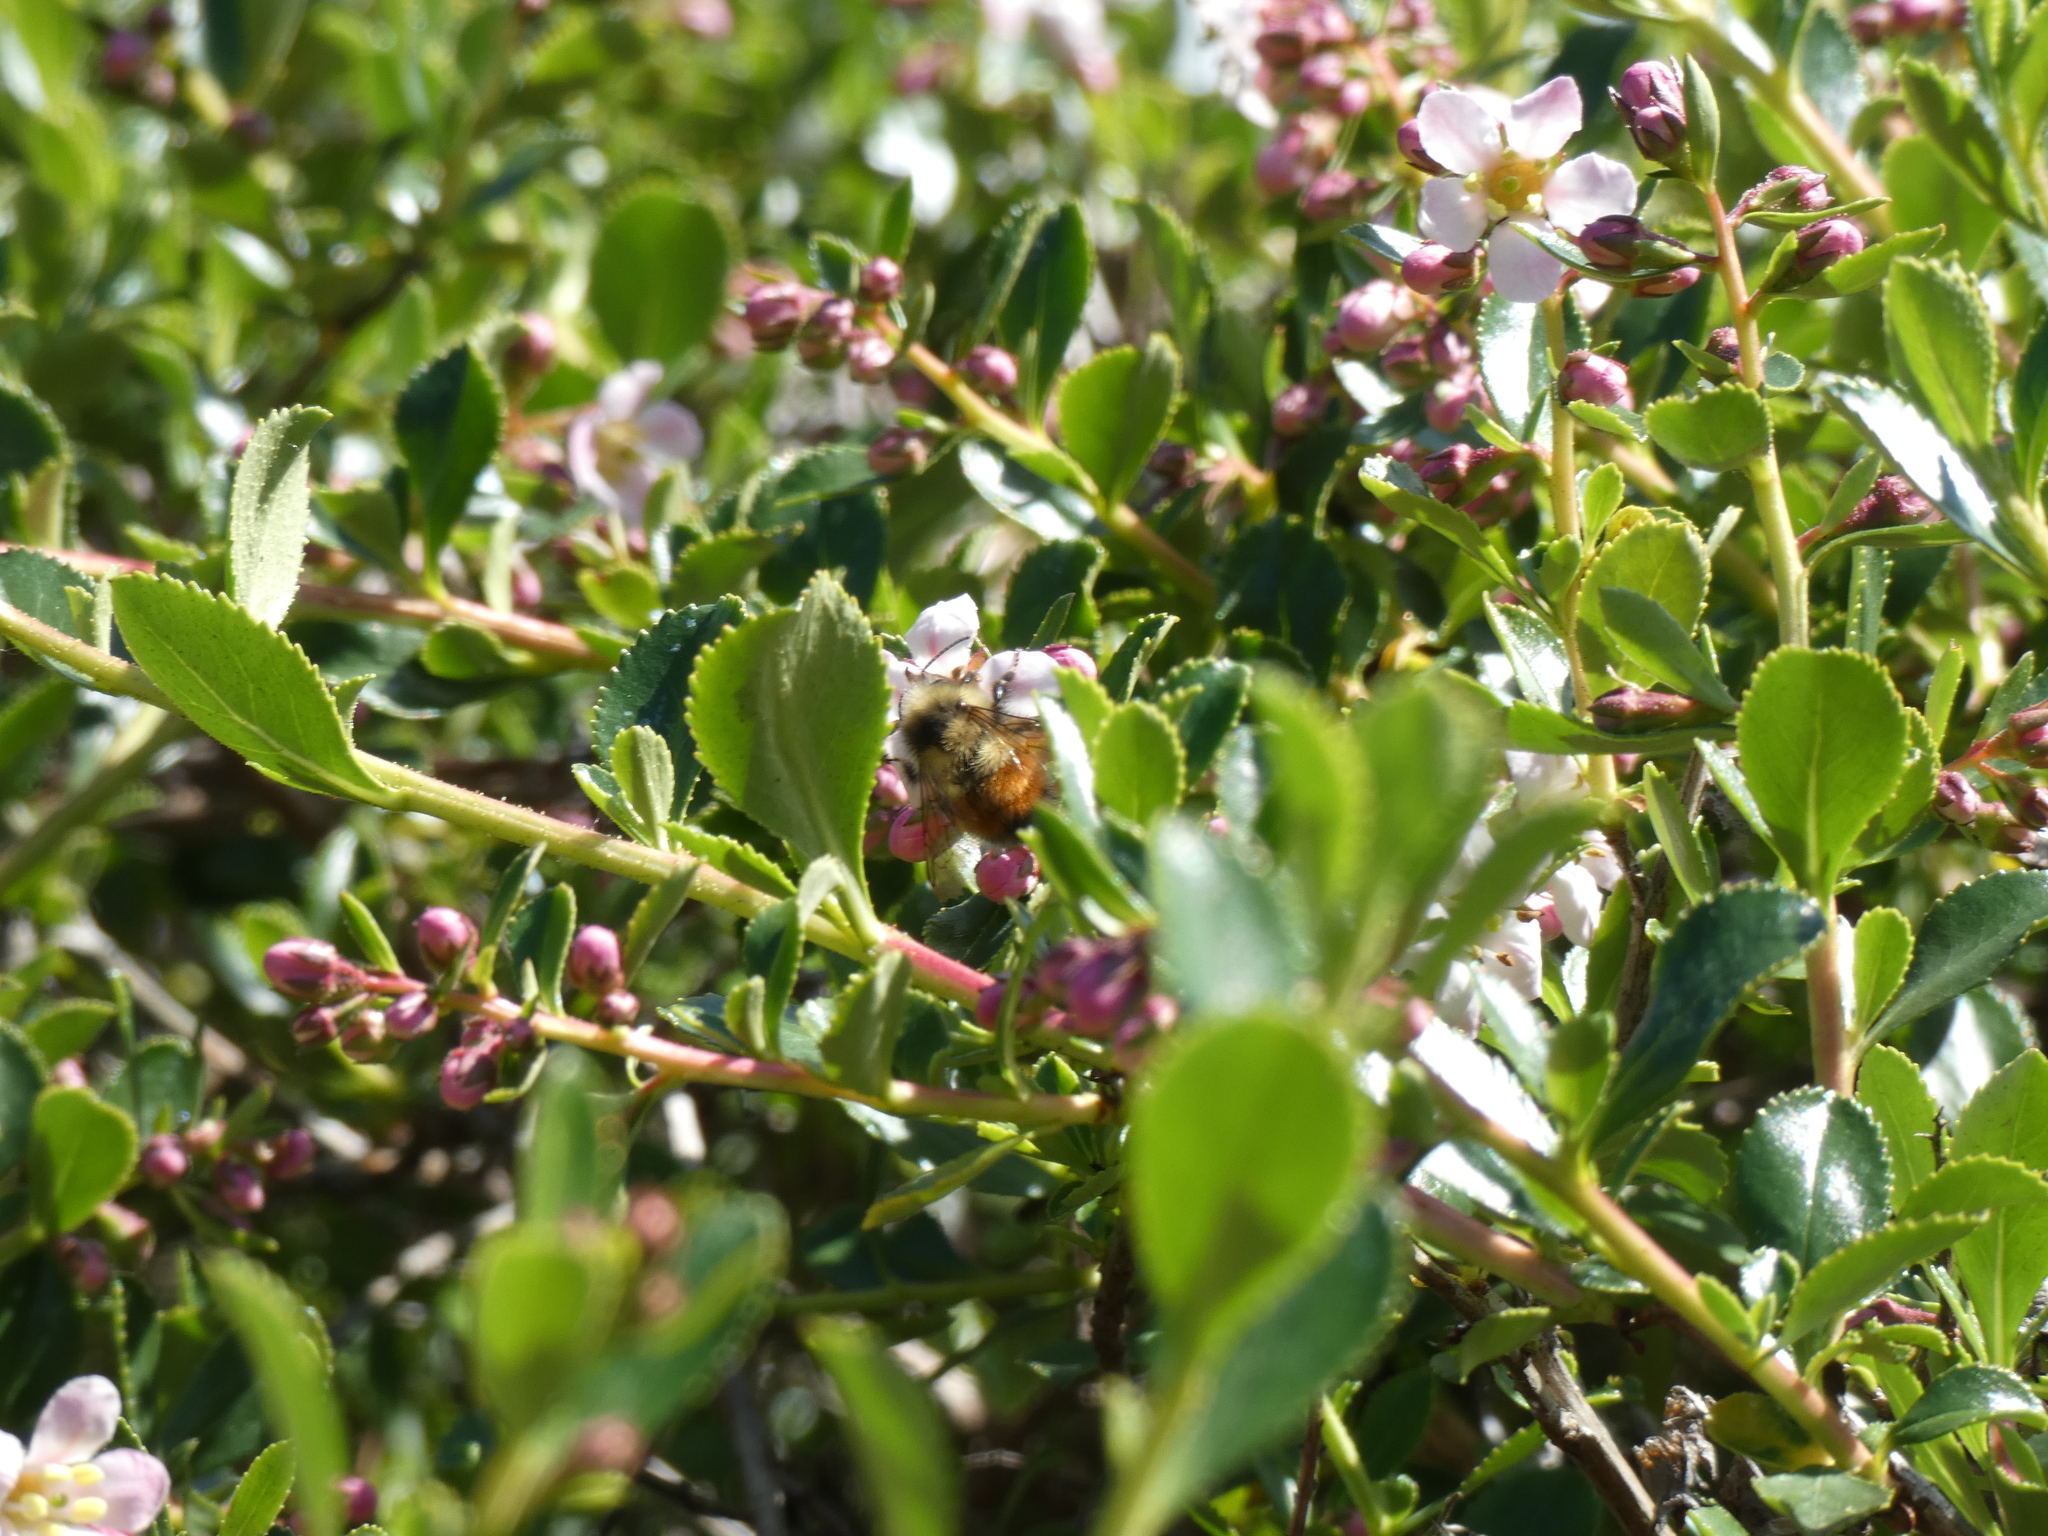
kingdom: Animalia
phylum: Arthropoda
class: Insecta
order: Hymenoptera
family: Apidae
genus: Bombus
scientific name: Bombus melanopygus
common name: Black tail bumble bee
